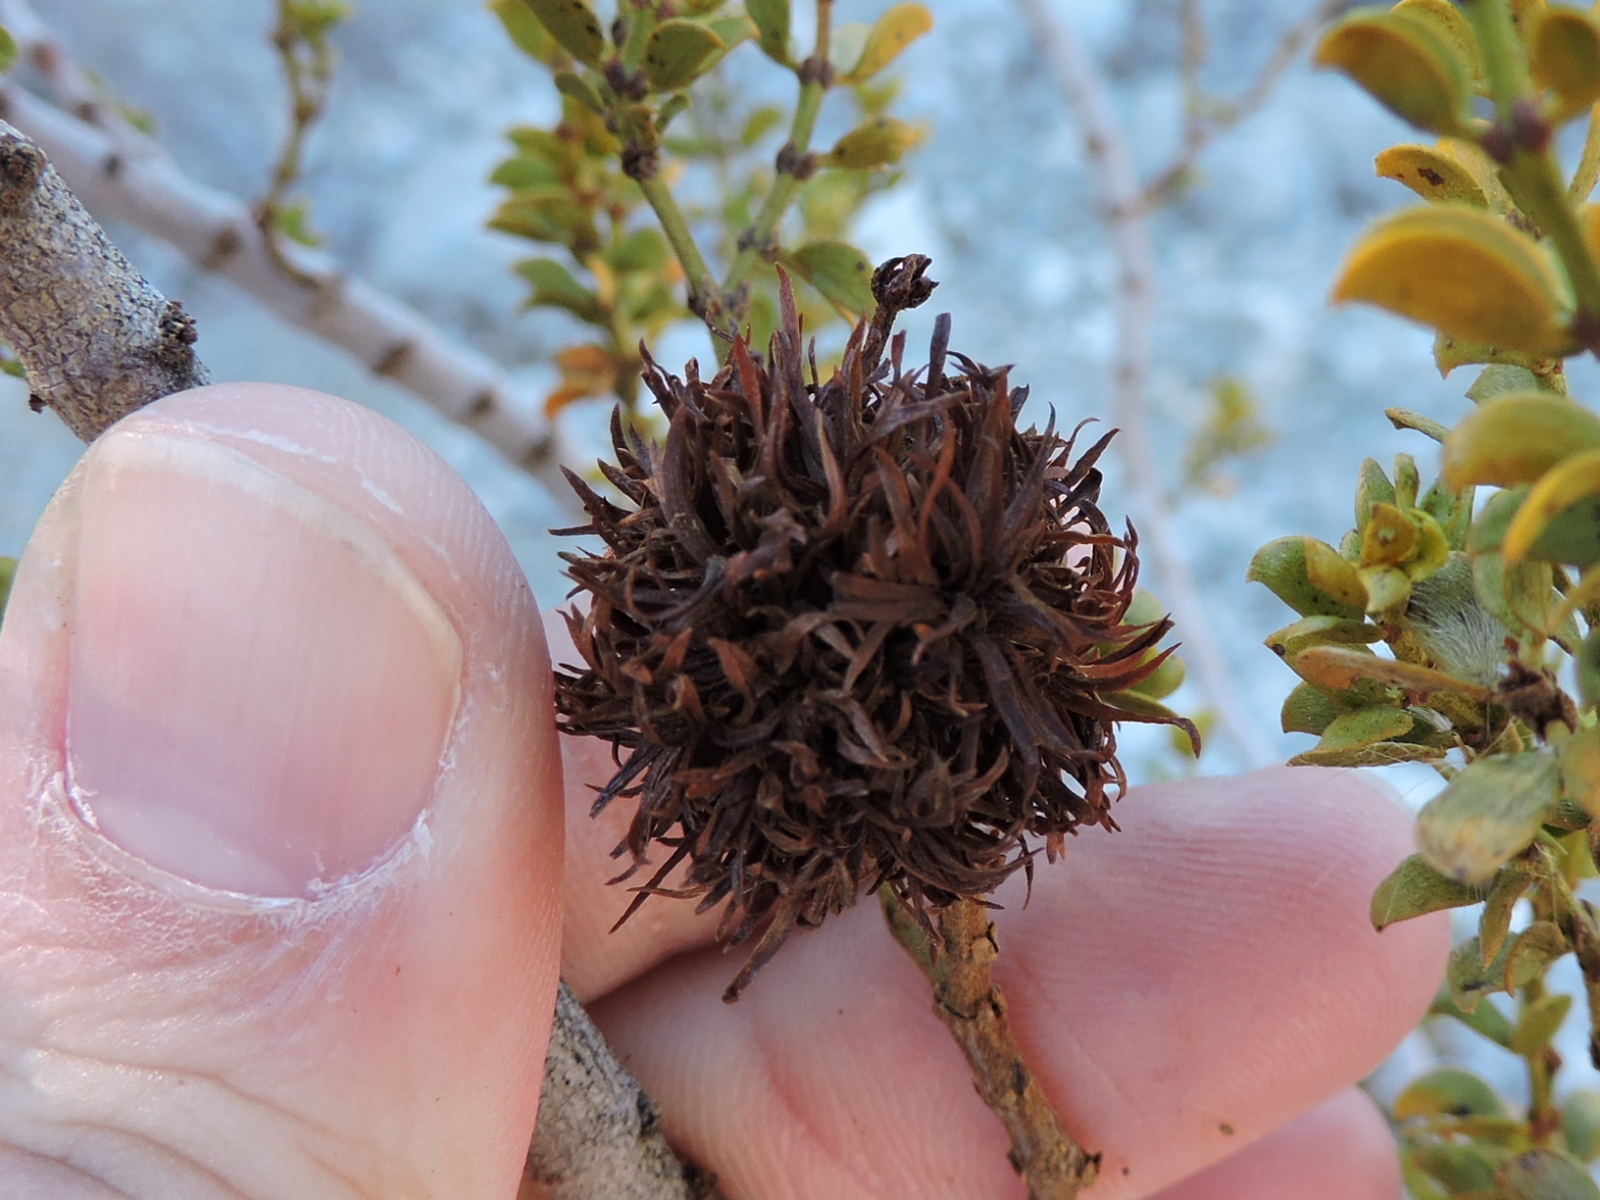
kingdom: Animalia
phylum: Arthropoda
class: Insecta
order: Diptera
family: Cecidomyiidae
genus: Asphondylia
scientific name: Asphondylia auripila
